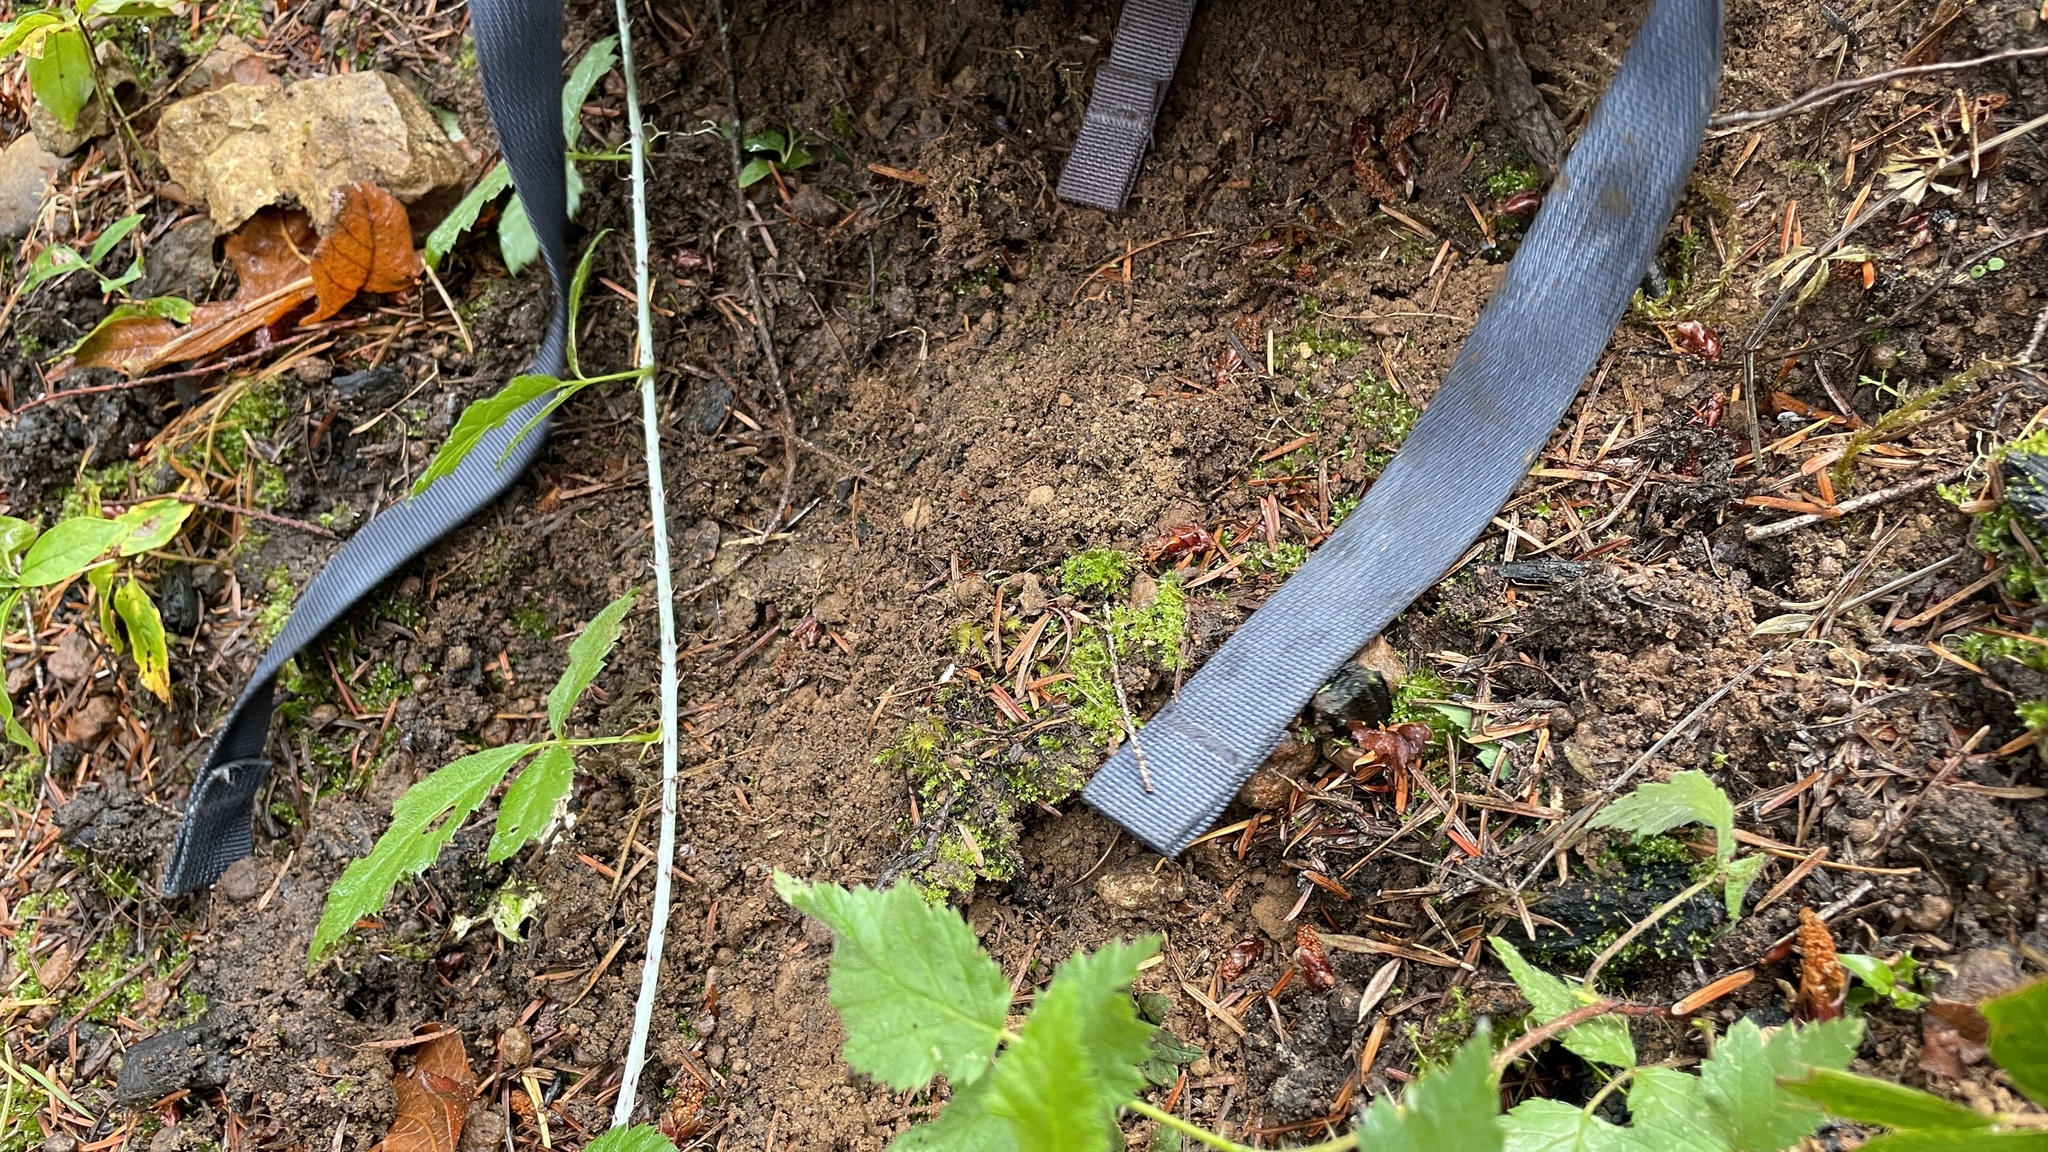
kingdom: Fungi
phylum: Basidiomycota
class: Agaricomycetes
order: Agaricales
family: Hymenogastraceae
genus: Hymenogaster
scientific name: Hymenogaster subalpinus
